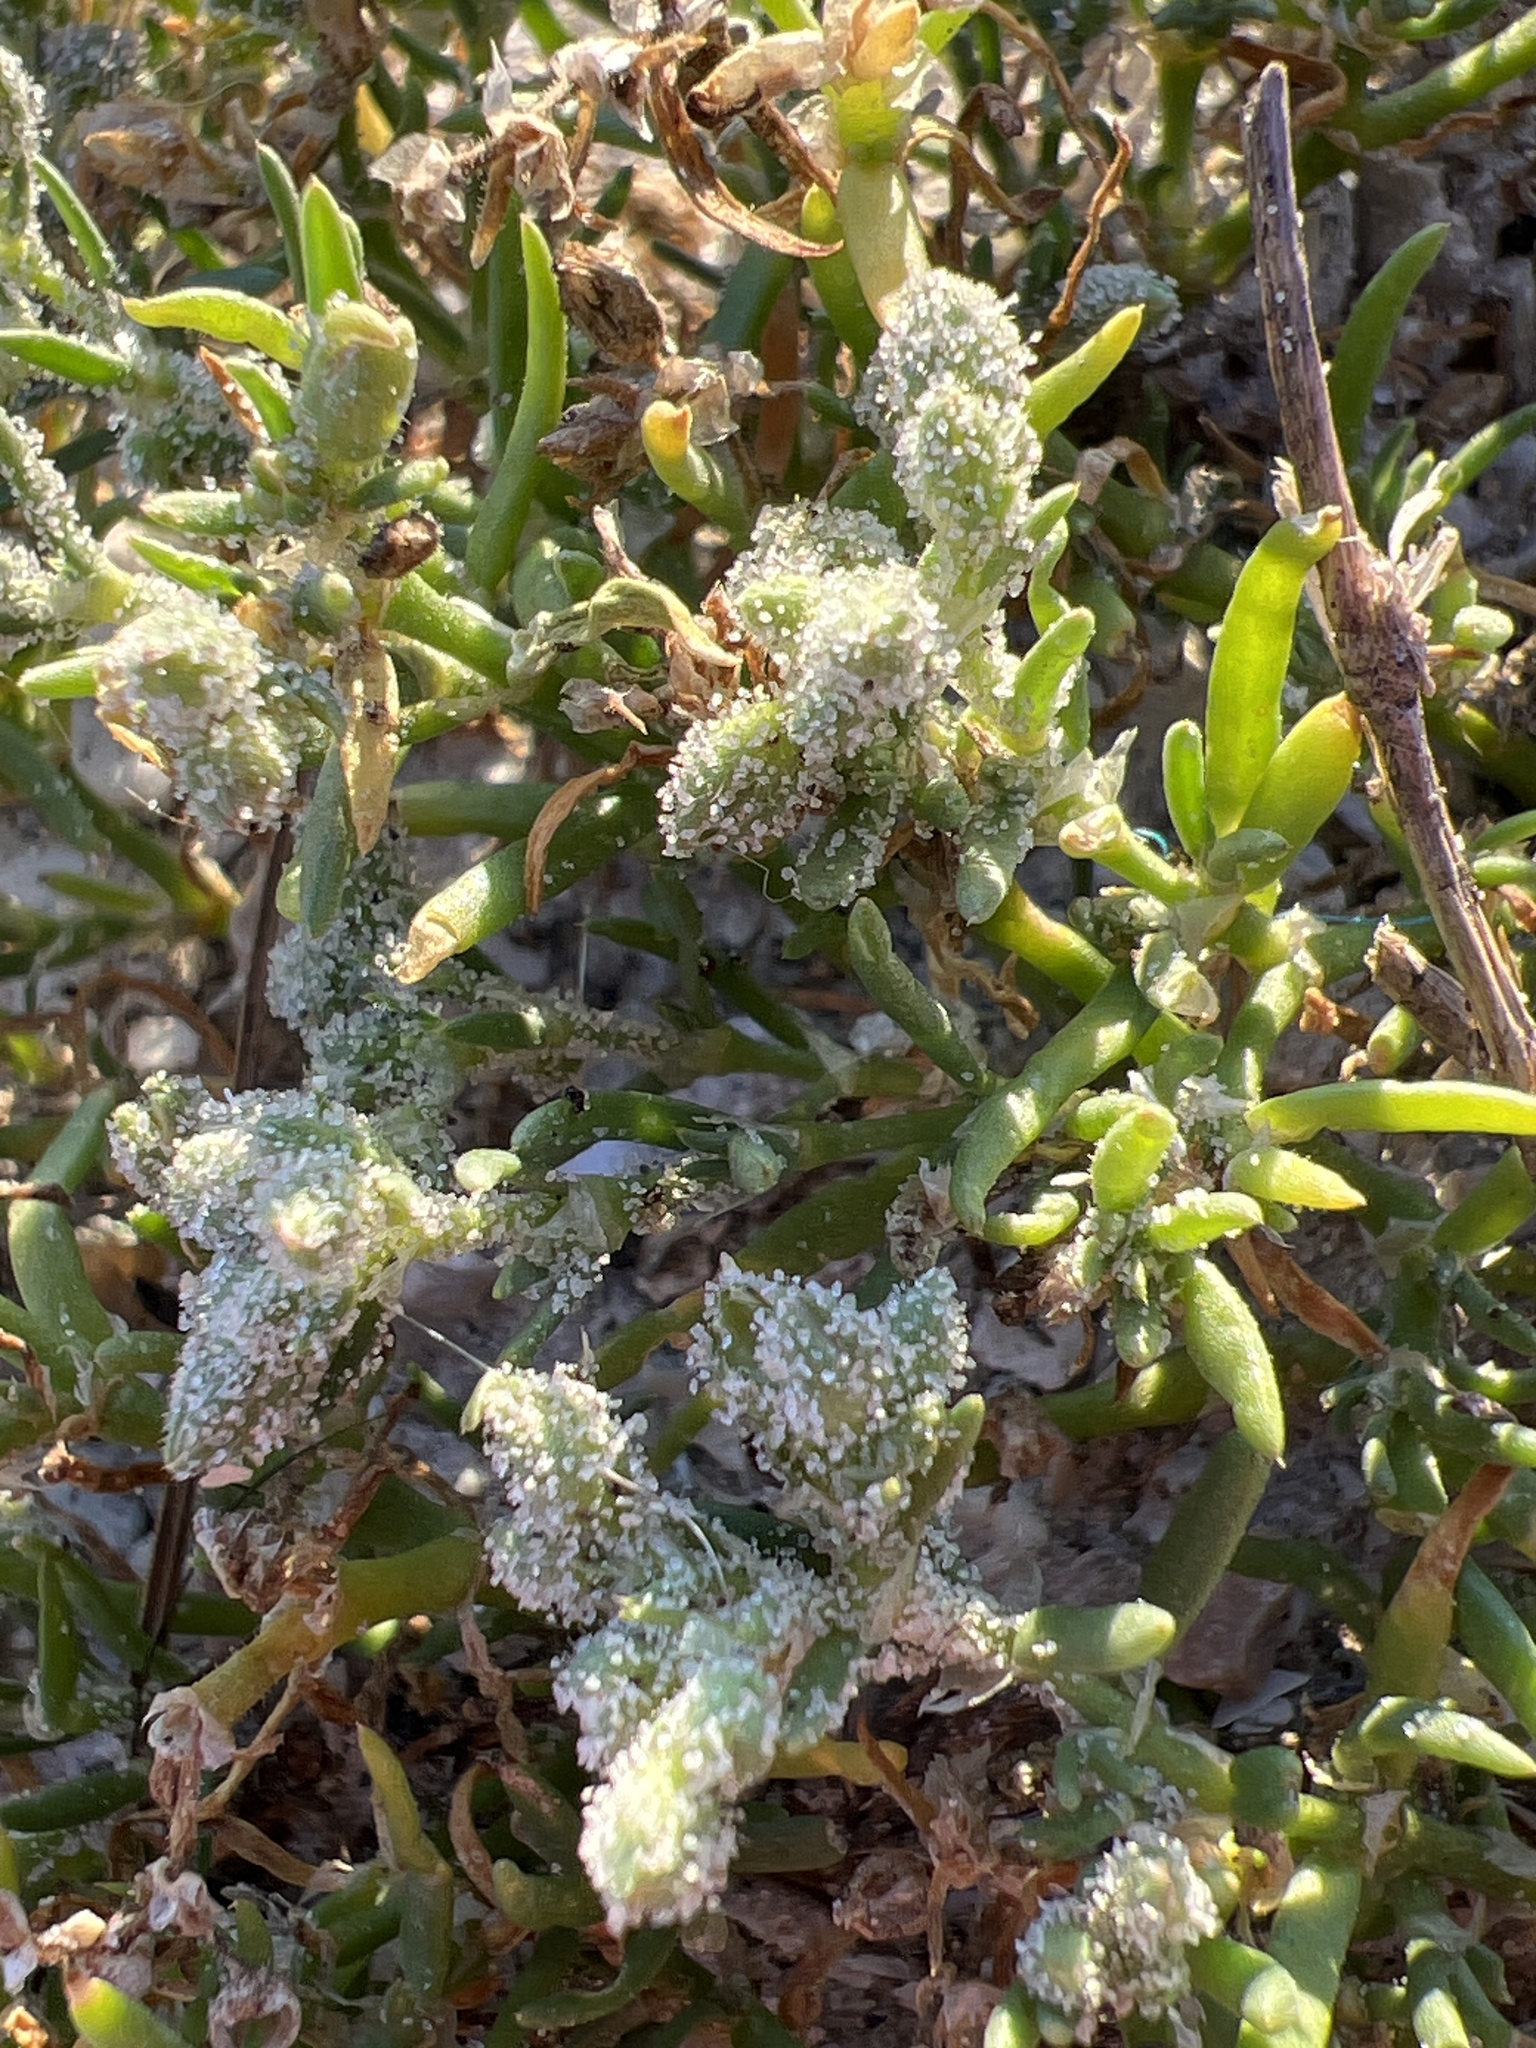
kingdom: Plantae
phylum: Tracheophyta
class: Magnoliopsida
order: Caryophyllales
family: Caryophyllaceae
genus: Spergularia
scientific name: Spergularia marina
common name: Lesser sea-spurrey
